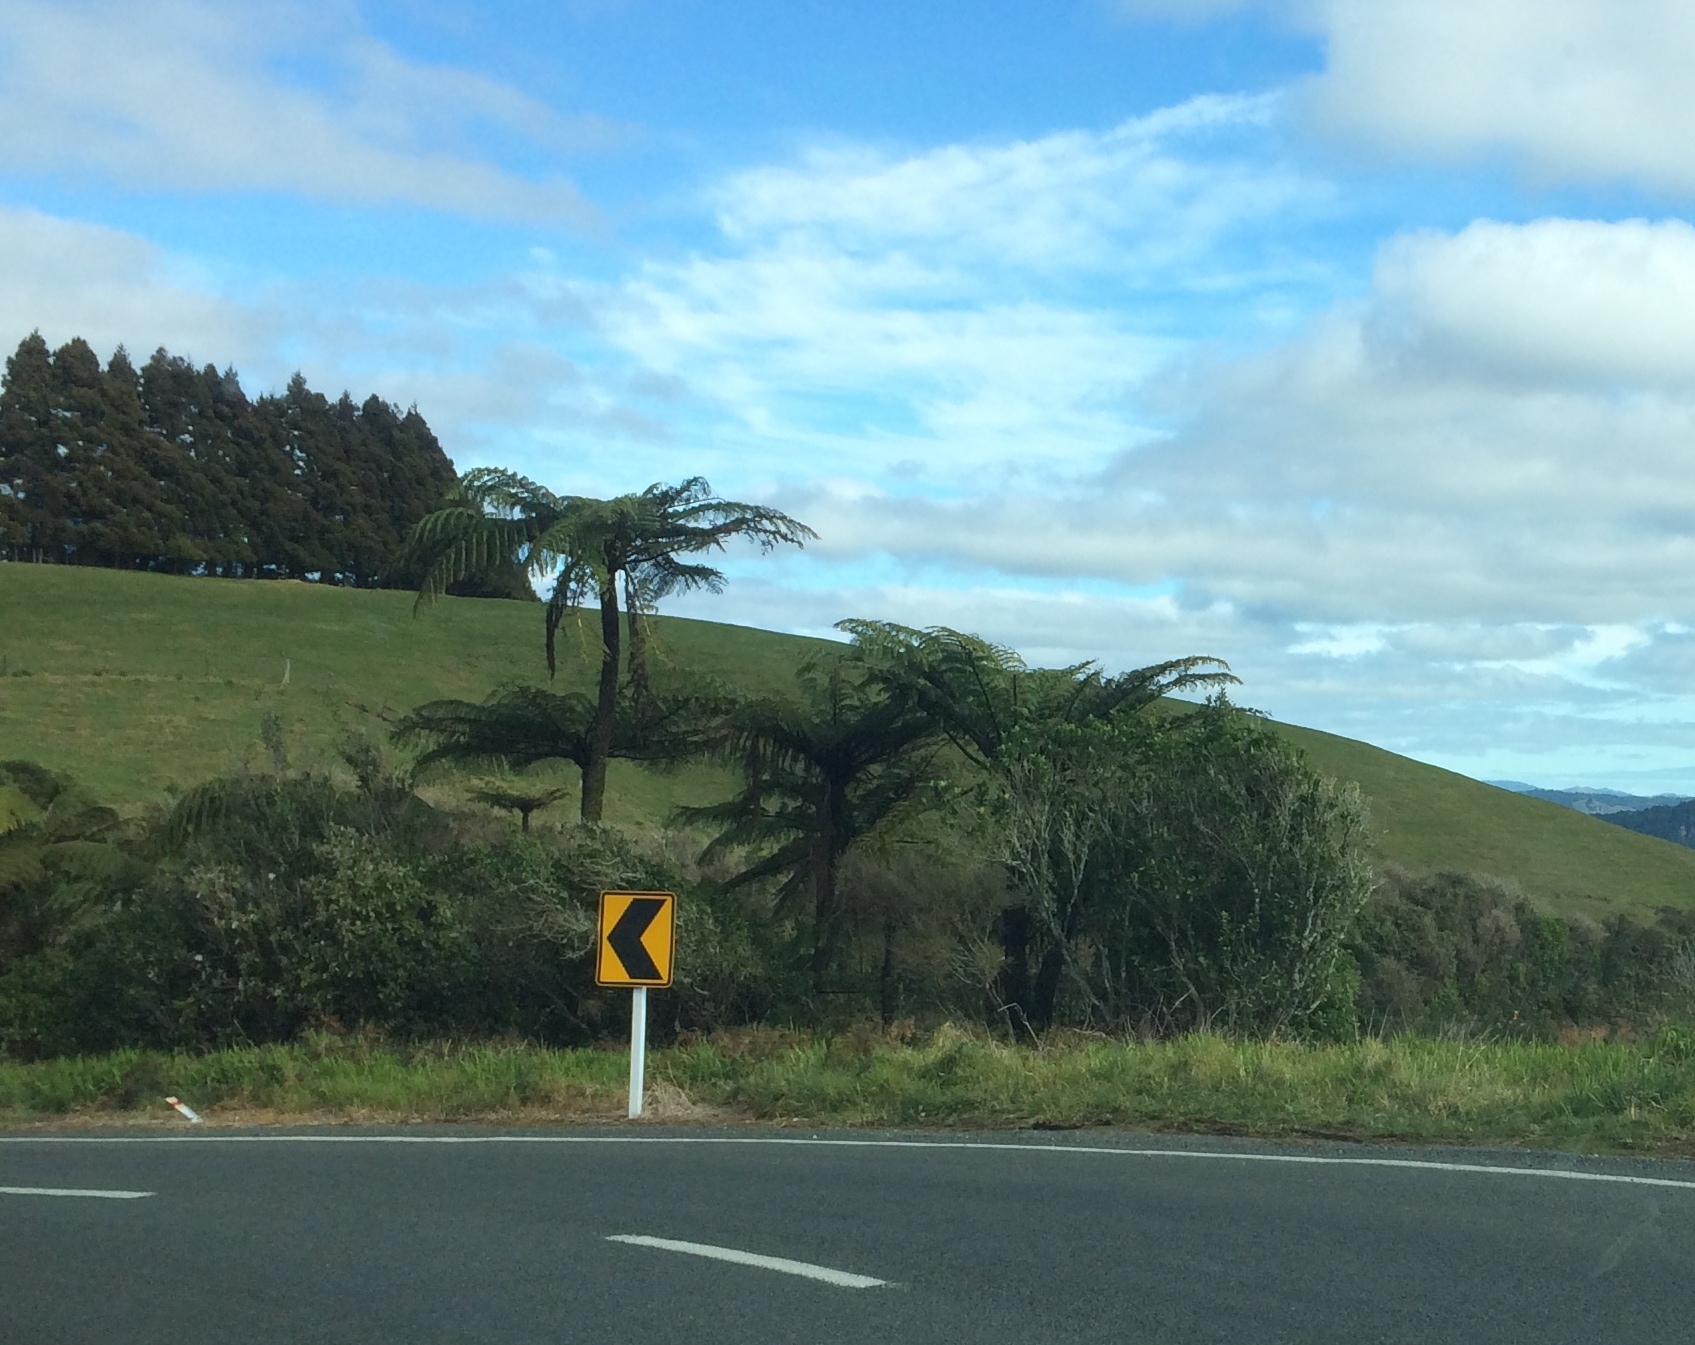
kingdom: Plantae
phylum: Tracheophyta
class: Polypodiopsida
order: Cyatheales
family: Cyatheaceae
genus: Sphaeropteris
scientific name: Sphaeropteris medullaris
